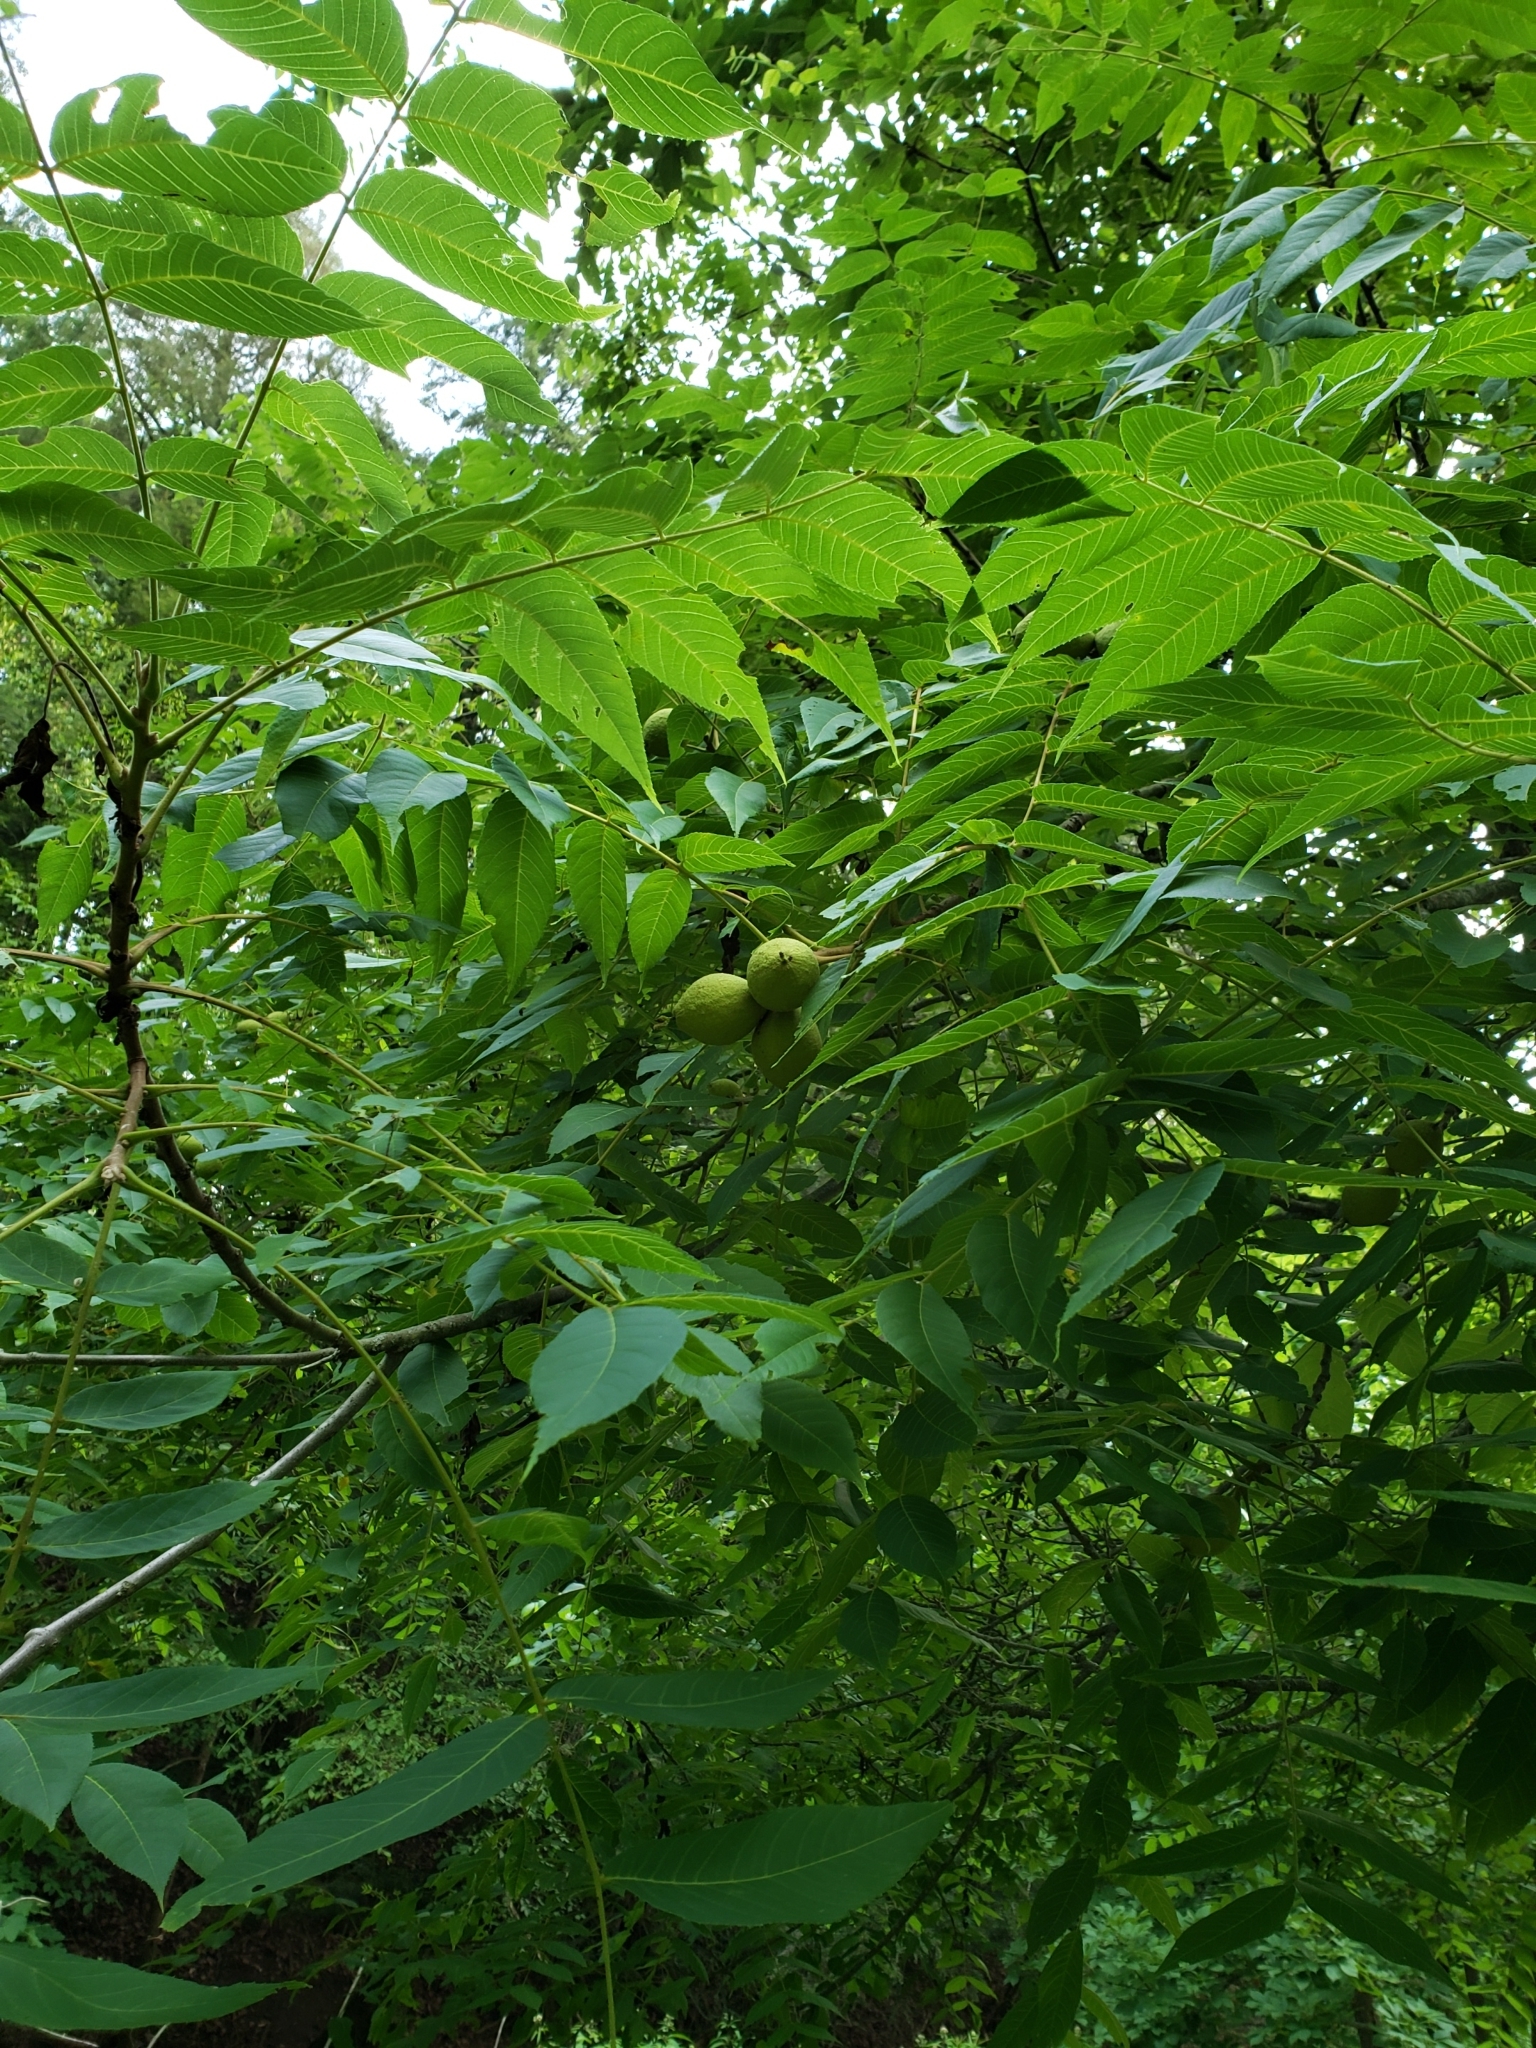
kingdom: Plantae
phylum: Tracheophyta
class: Magnoliopsida
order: Fagales
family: Juglandaceae
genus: Juglans
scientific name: Juglans nigra
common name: Black walnut
